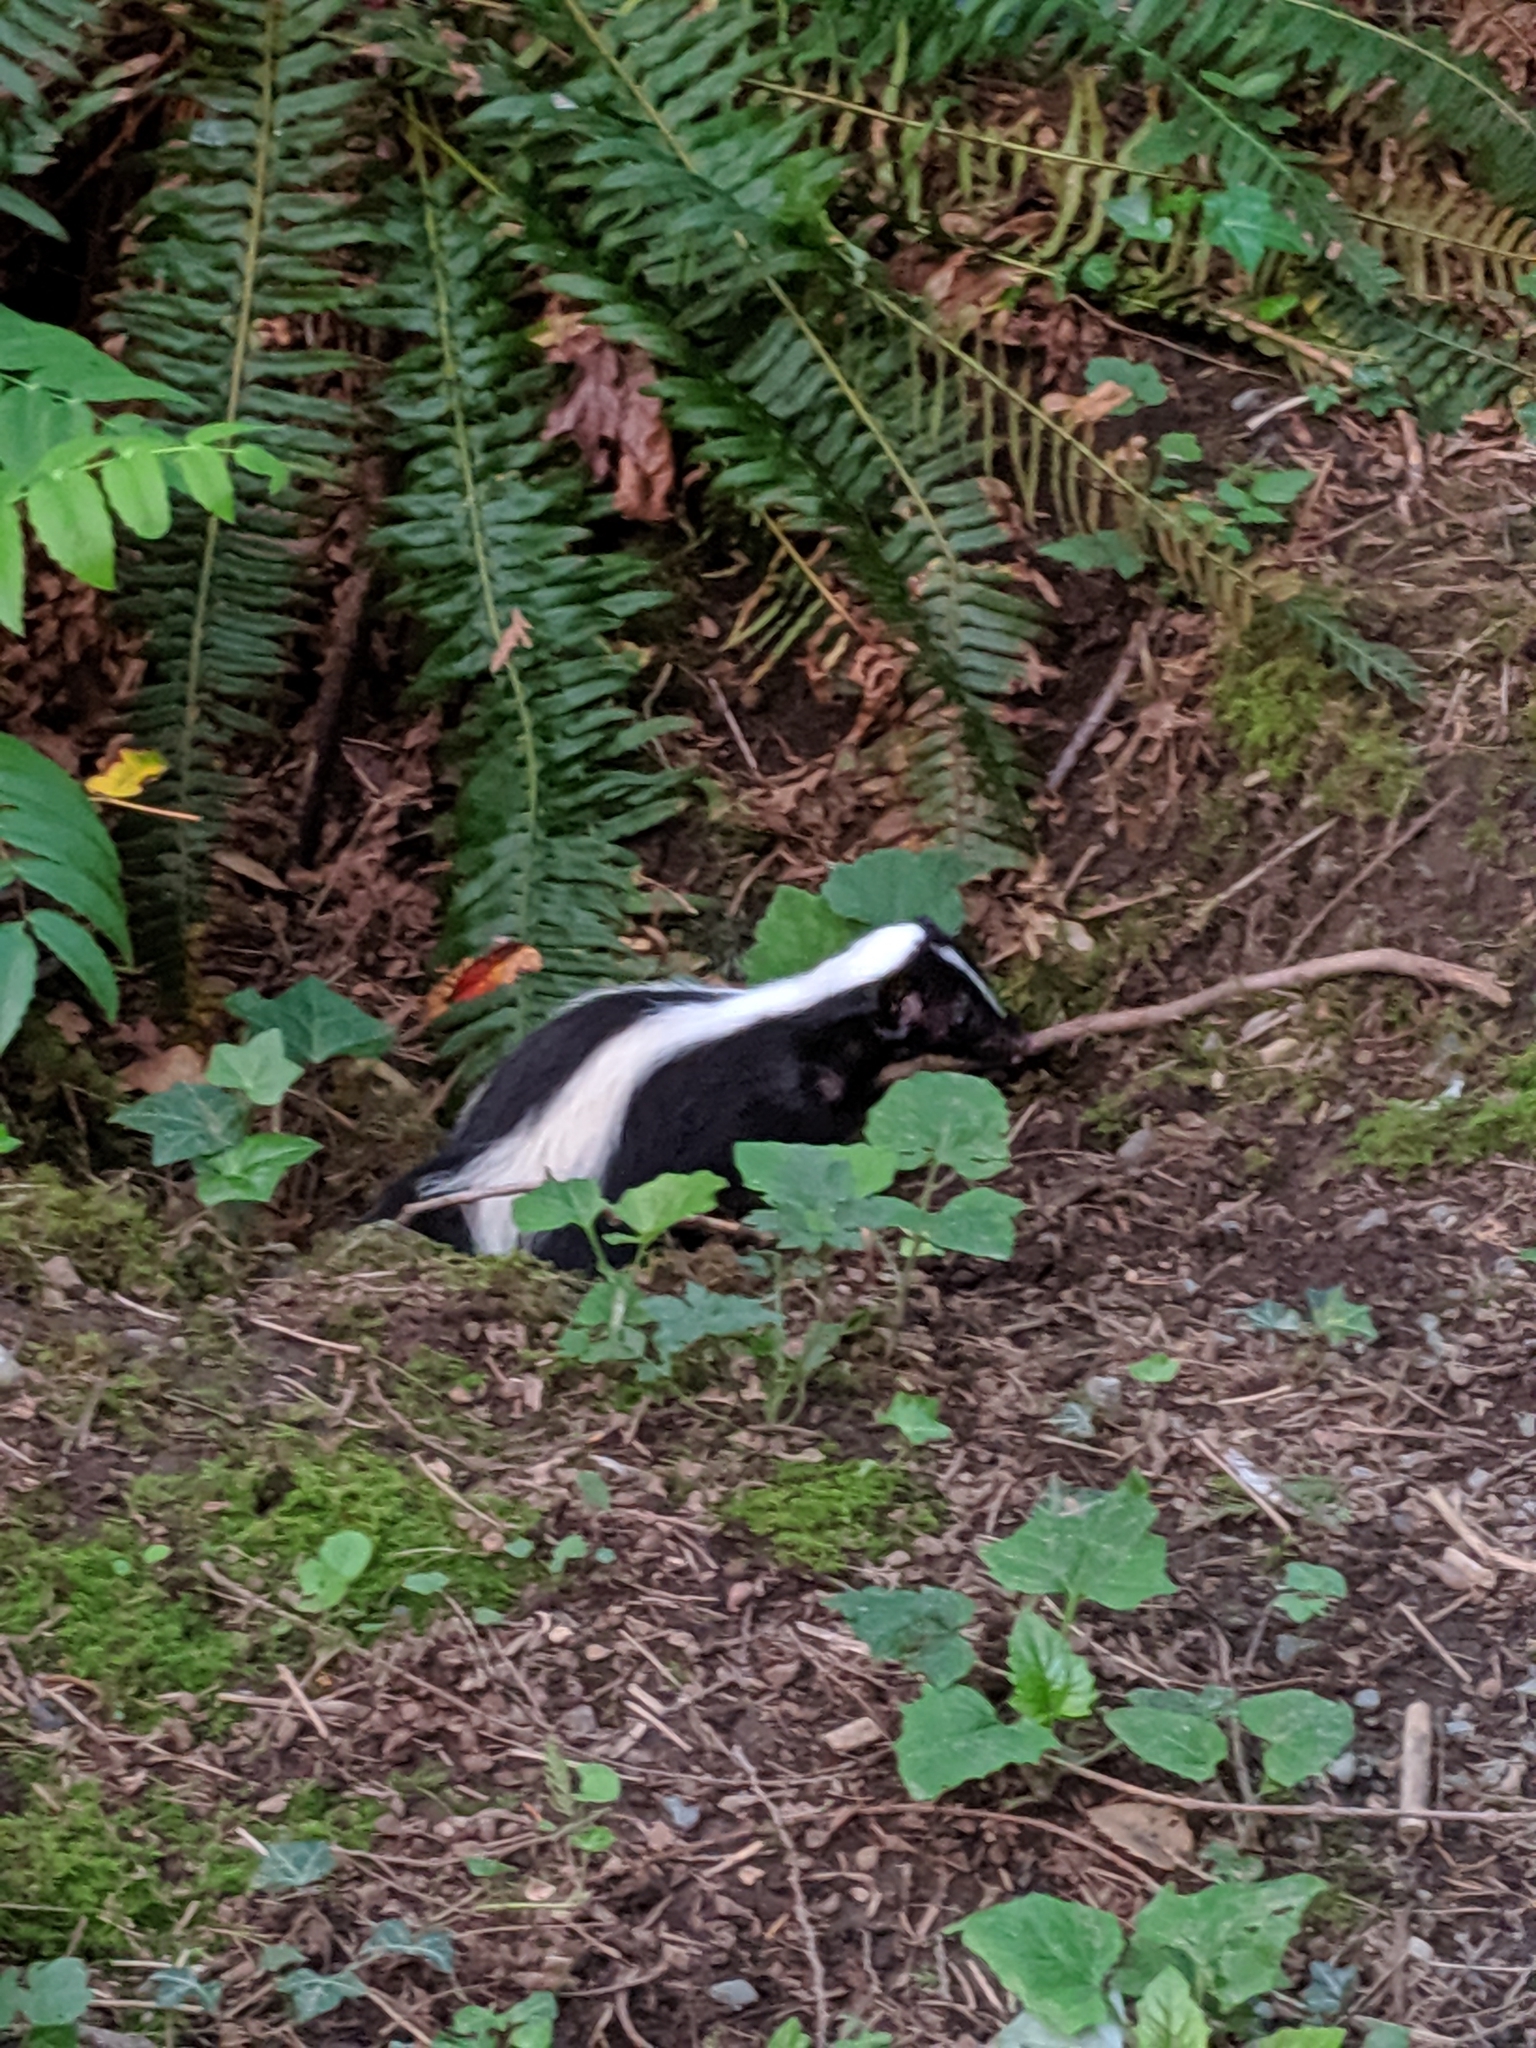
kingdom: Animalia
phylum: Chordata
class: Mammalia
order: Carnivora
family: Mephitidae
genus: Mephitis
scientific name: Mephitis mephitis
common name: Striped skunk
